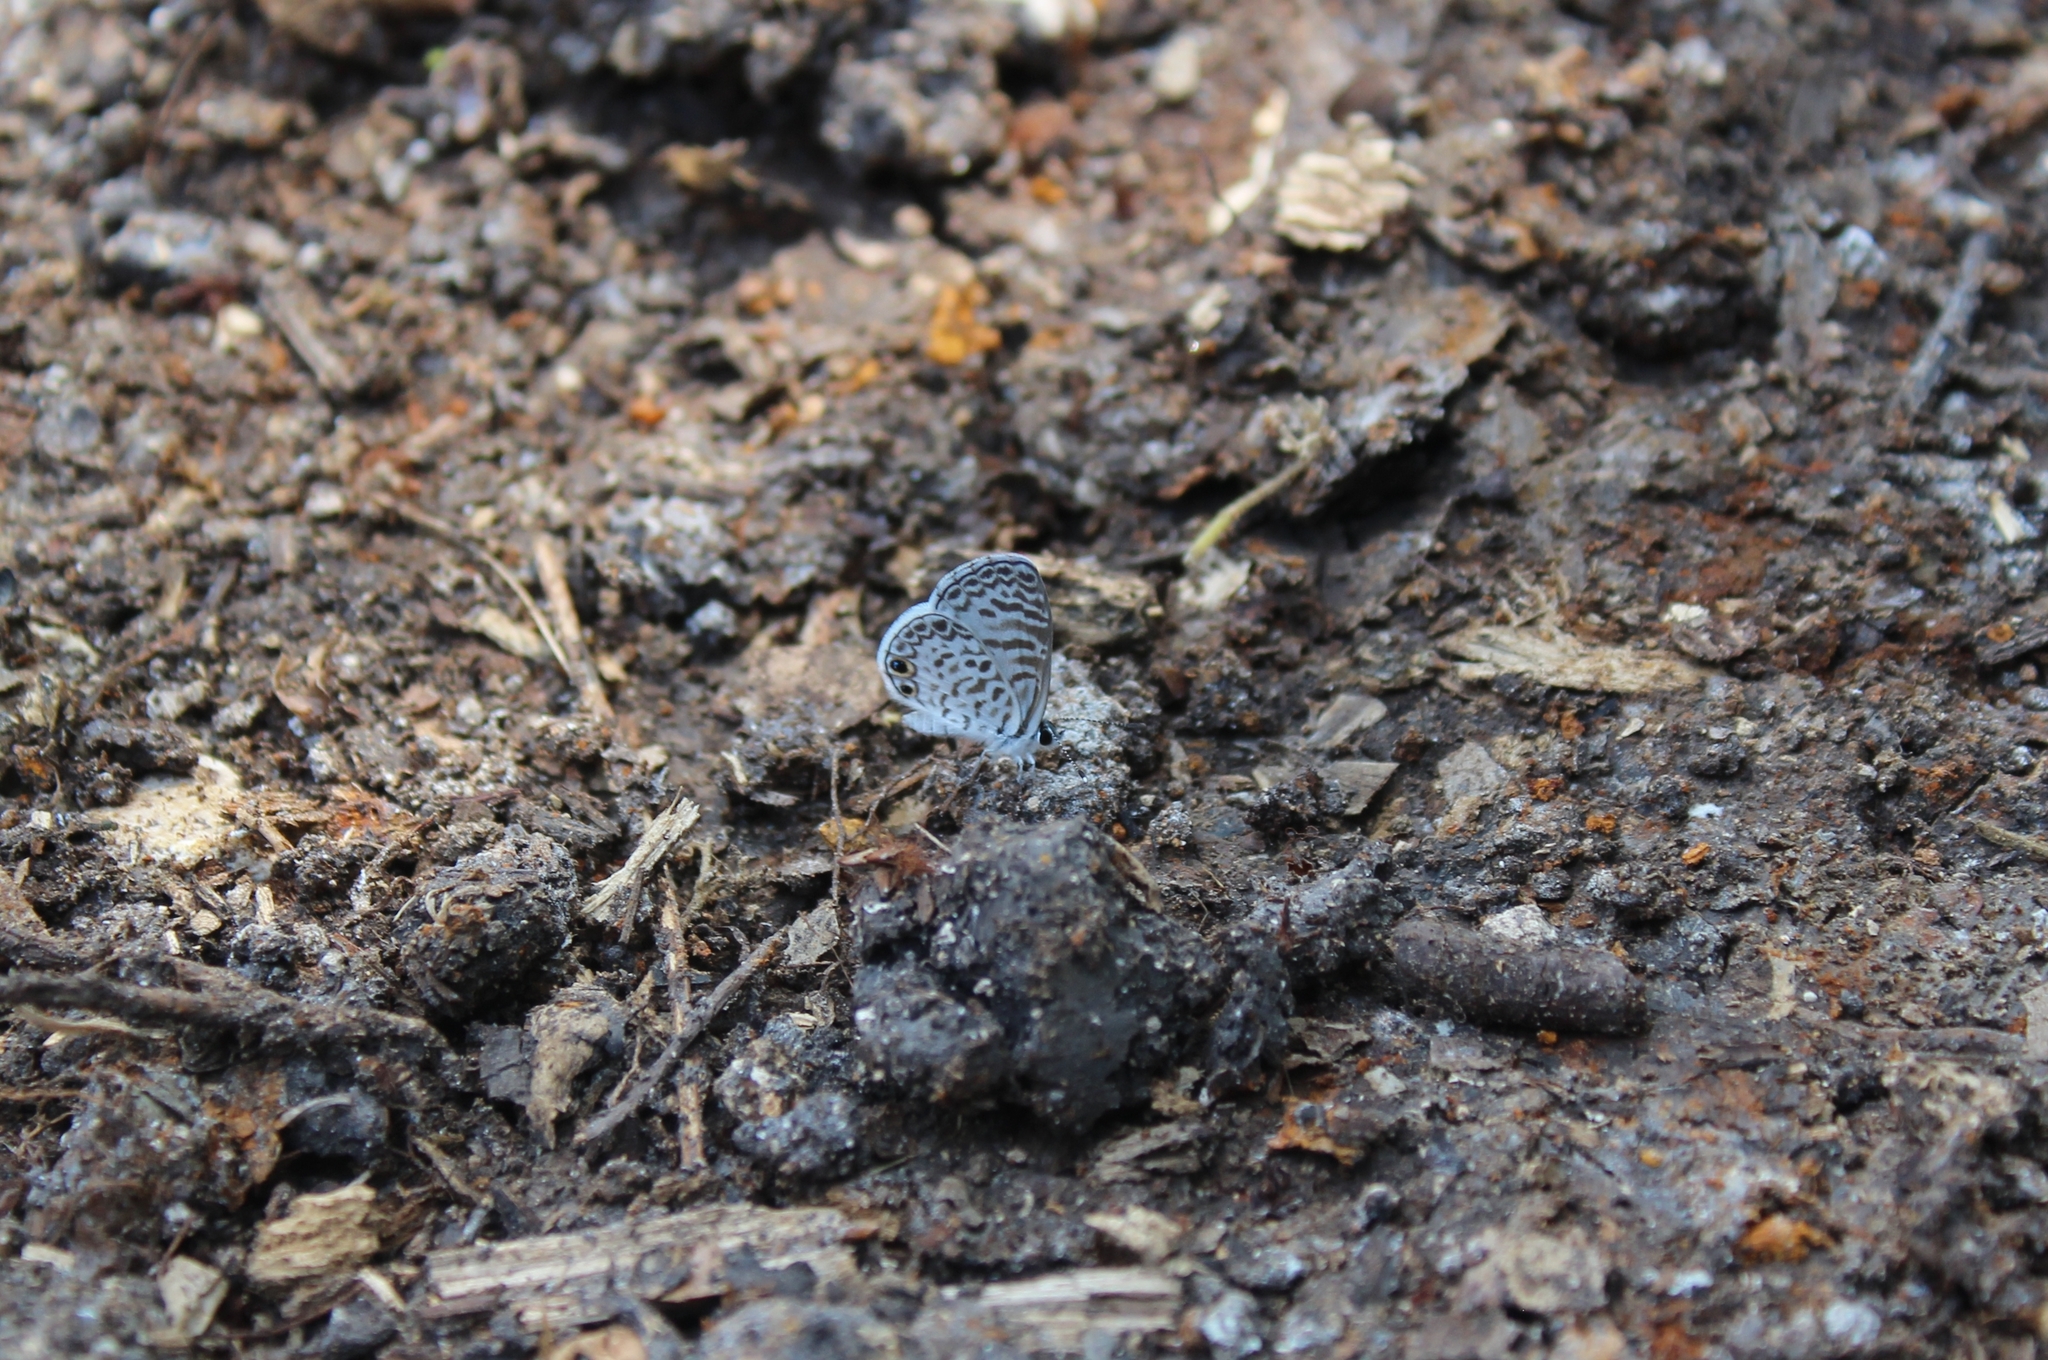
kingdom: Animalia
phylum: Arthropoda
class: Insecta
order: Lepidoptera
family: Lycaenidae
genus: Leptotes
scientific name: Leptotes cassius
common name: Cassius blue
